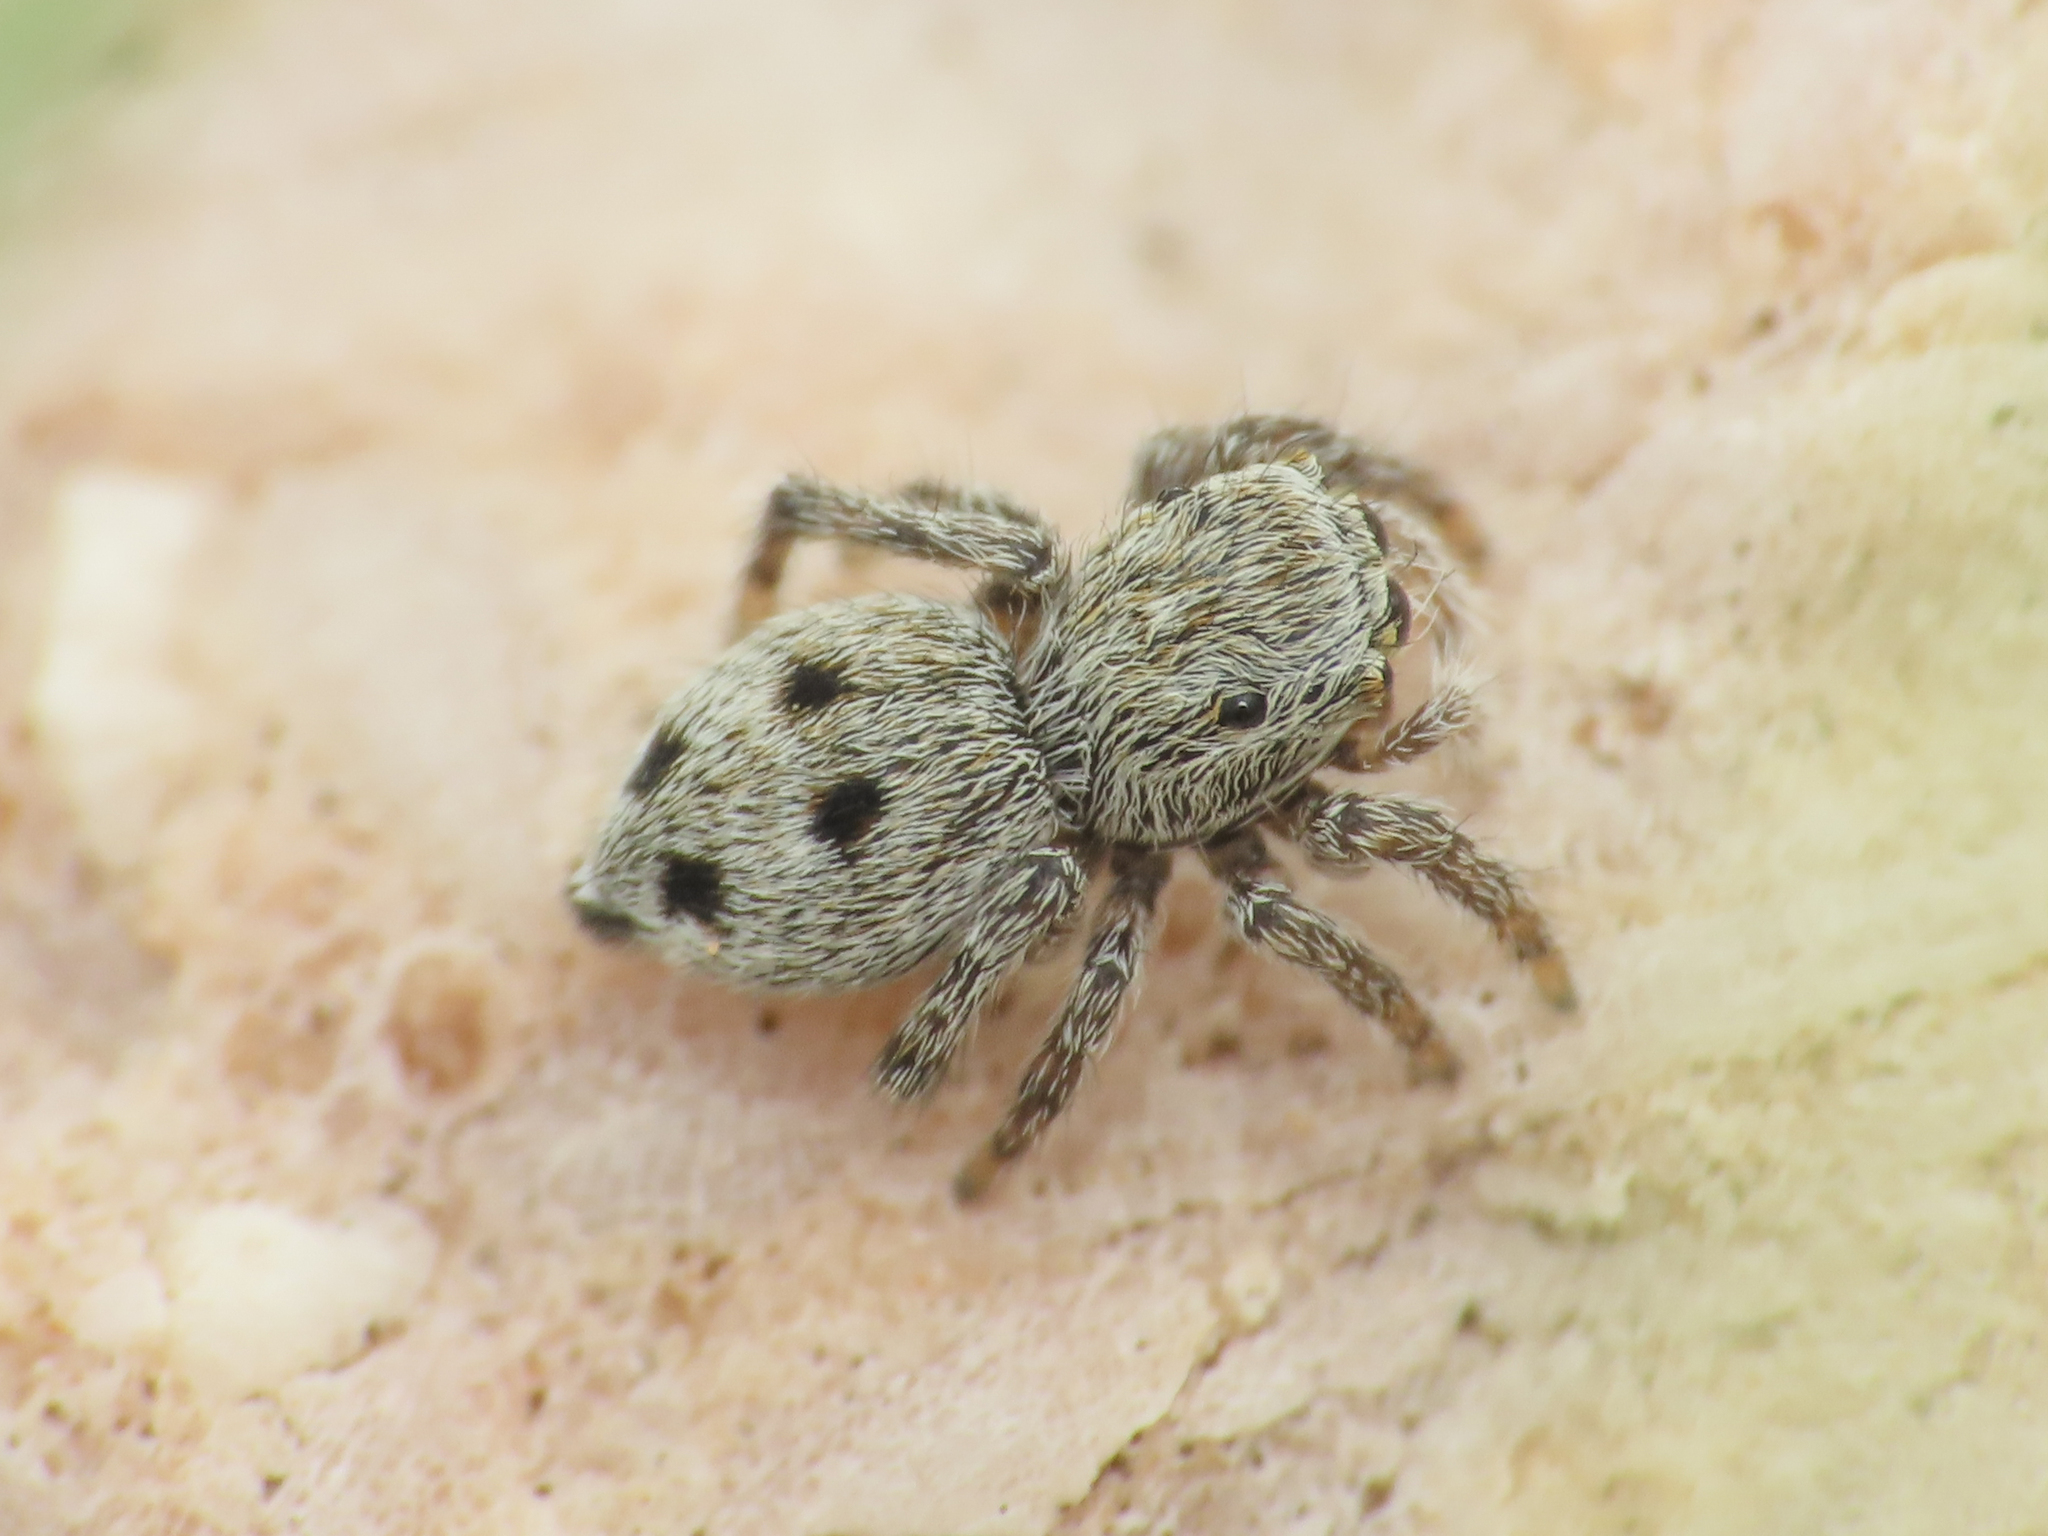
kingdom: Animalia
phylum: Arthropoda
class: Arachnida
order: Araneae
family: Salticidae
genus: Attulus
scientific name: Attulus atricapillus
